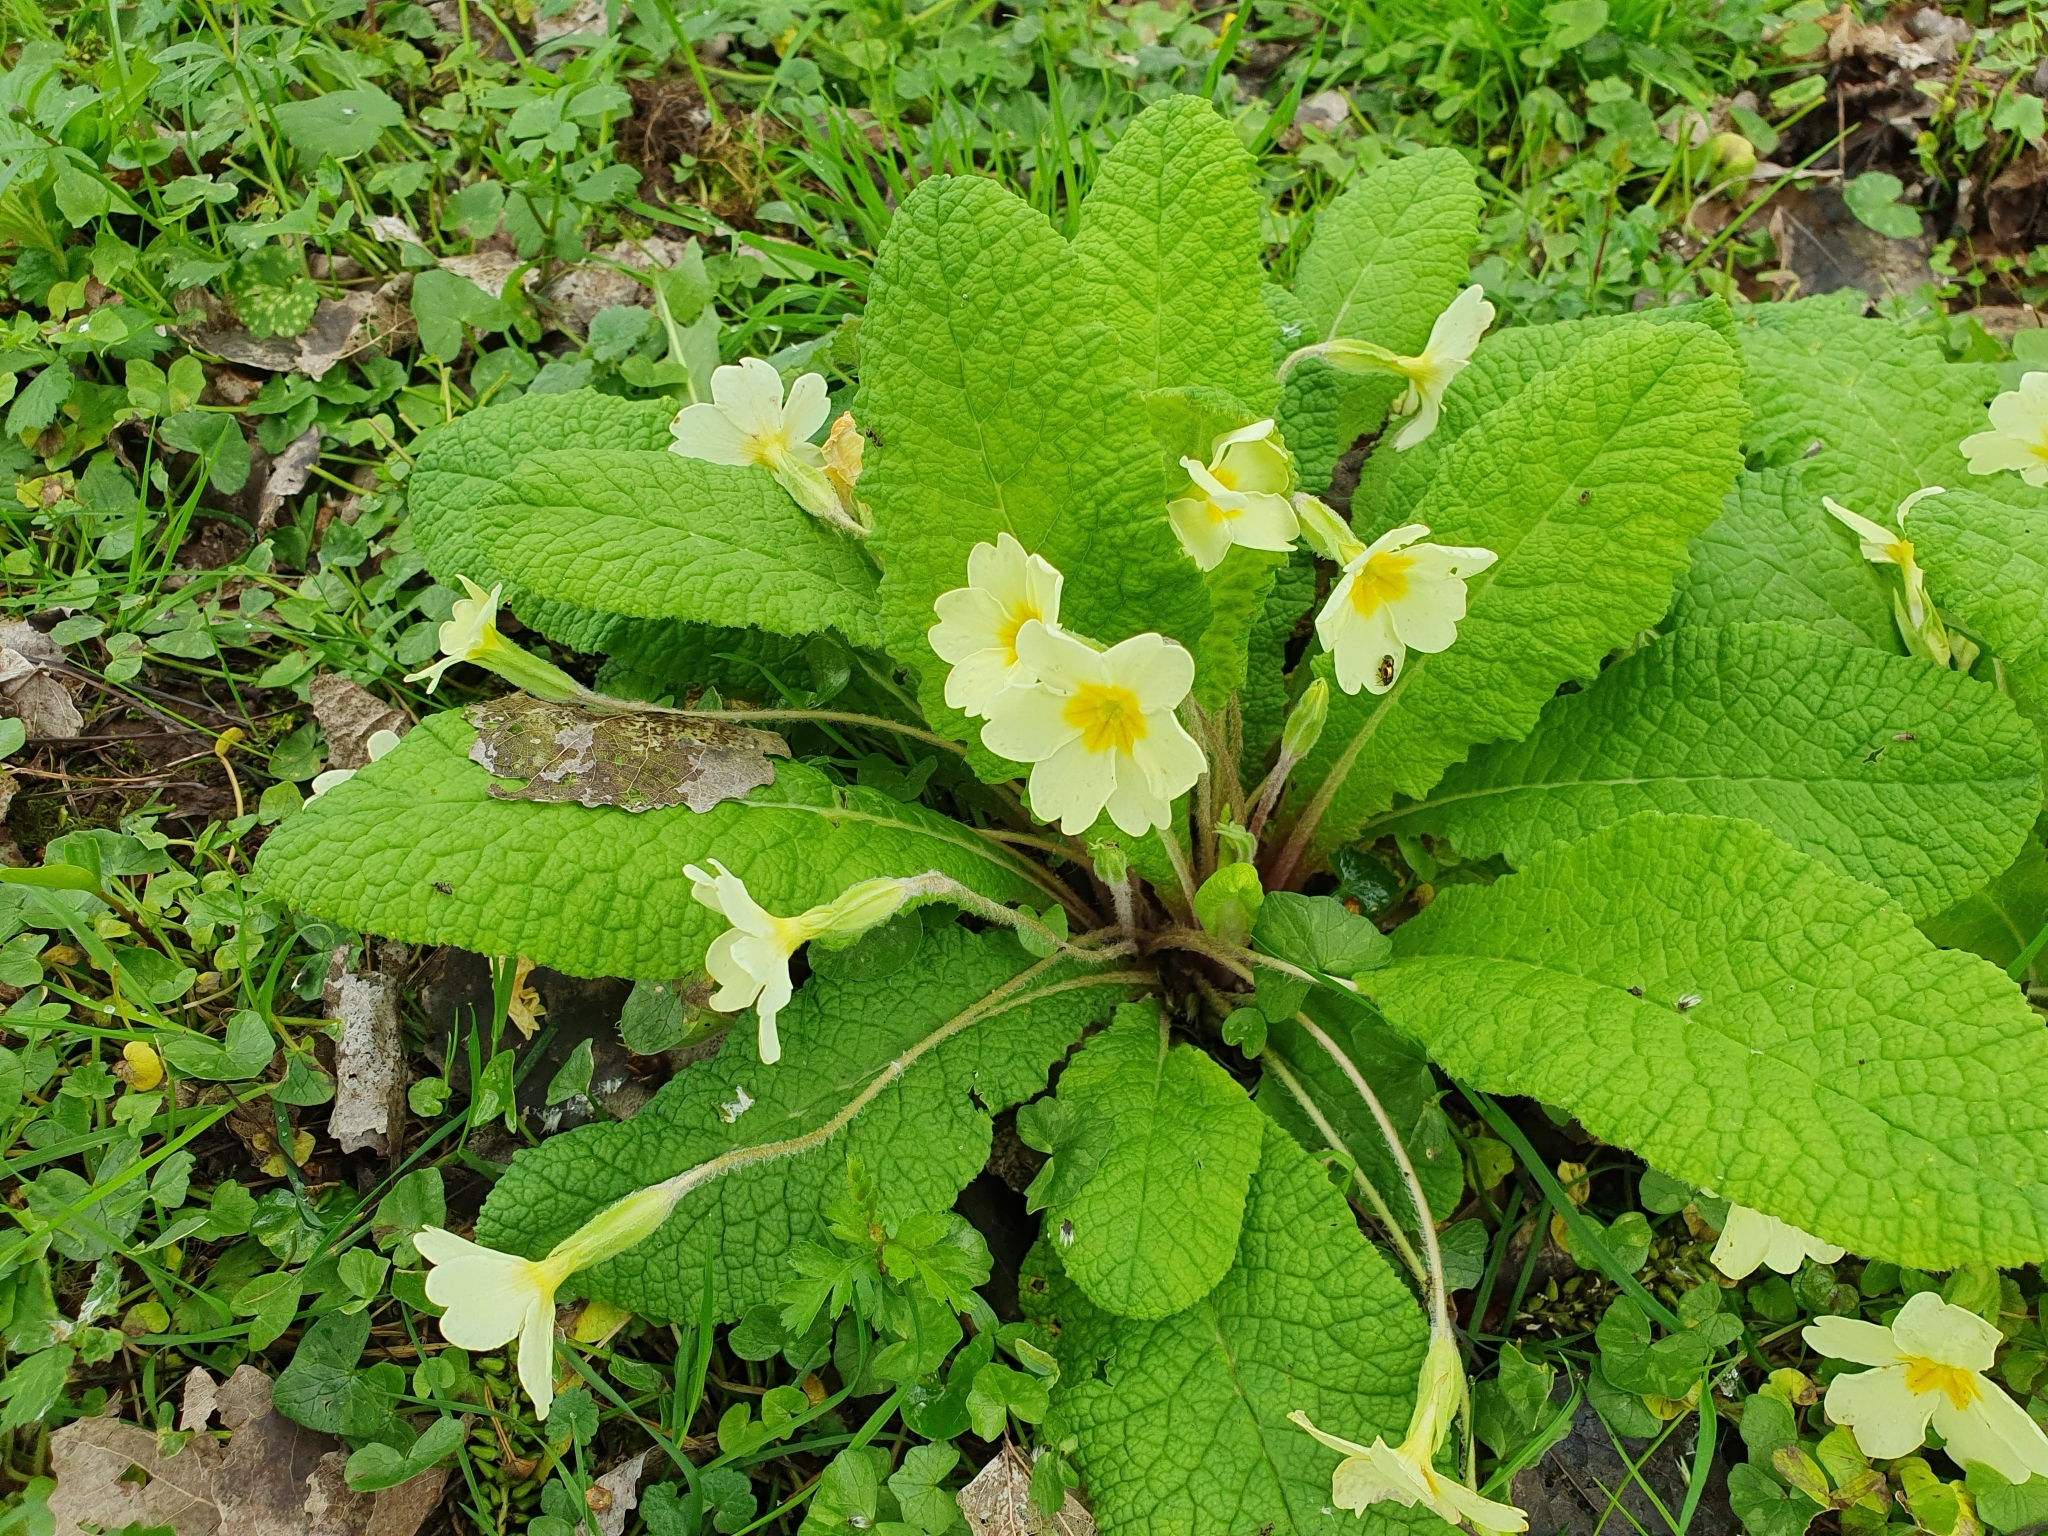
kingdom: Plantae
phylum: Tracheophyta
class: Magnoliopsida
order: Ericales
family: Primulaceae
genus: Primula
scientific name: Primula vulgaris
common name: Primrose
